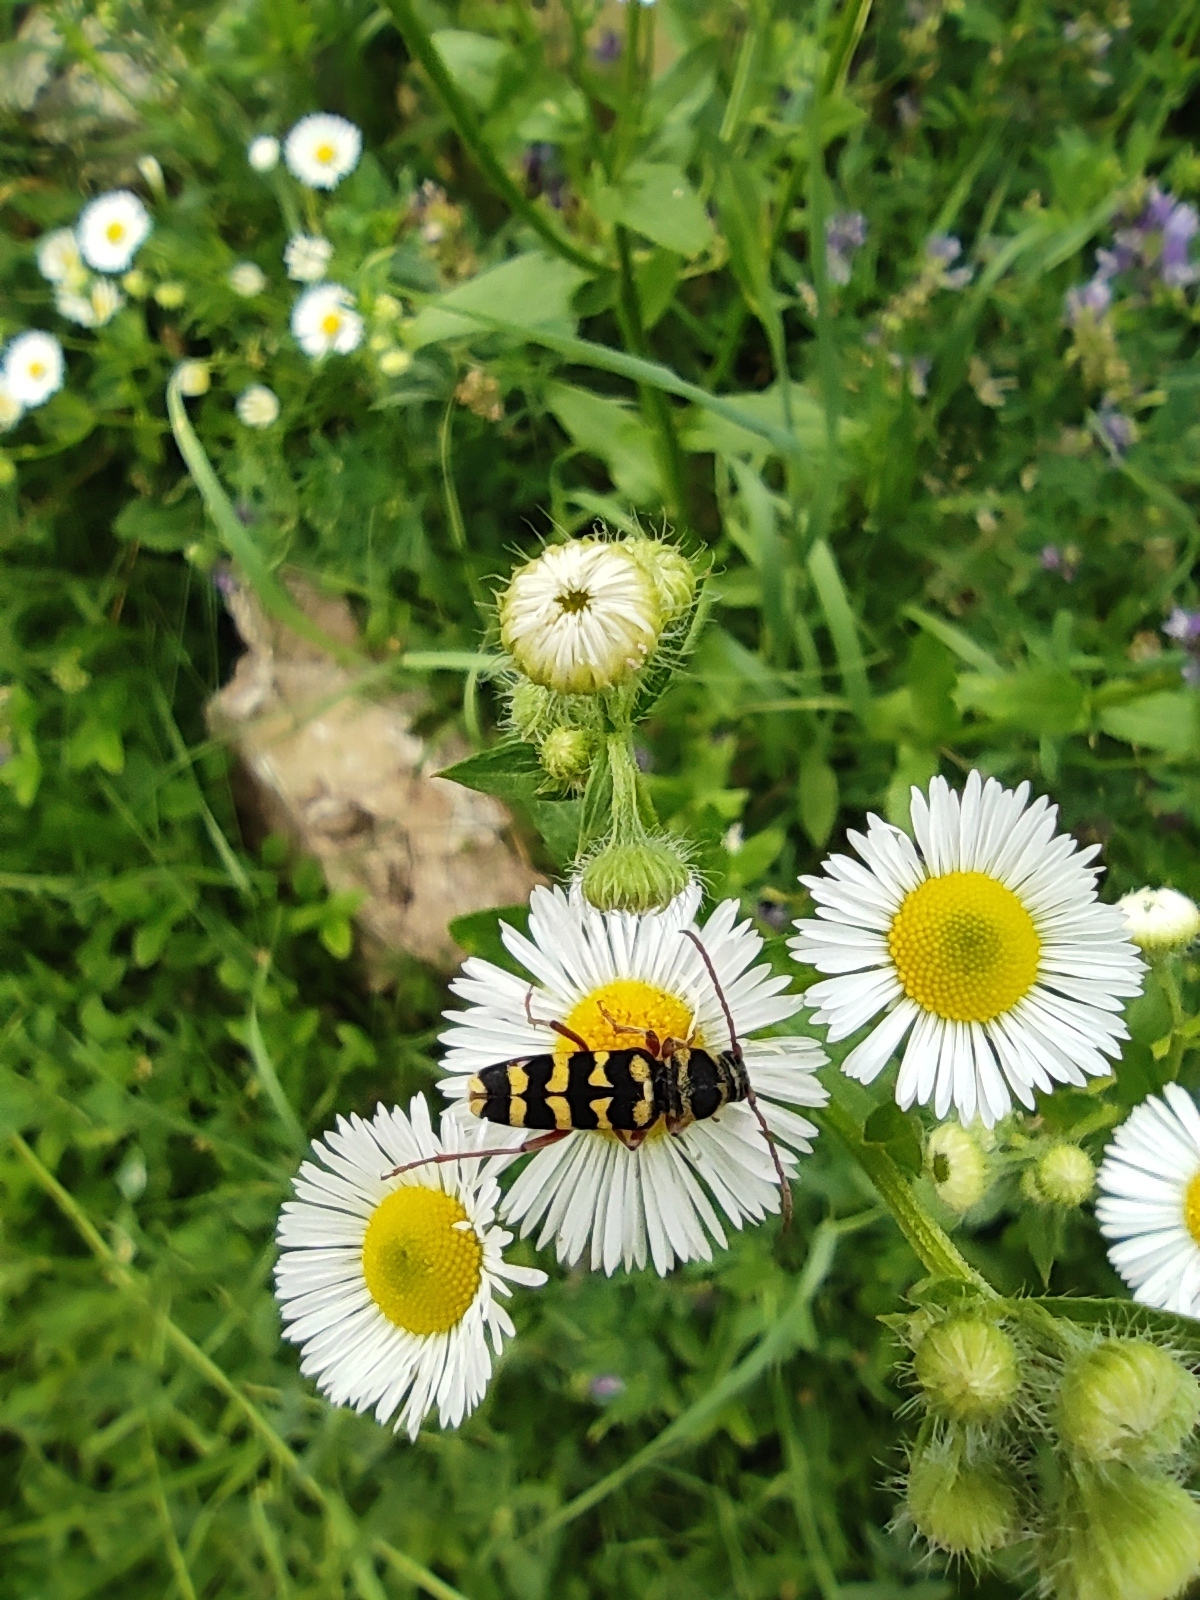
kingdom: Animalia
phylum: Arthropoda
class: Insecta
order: Coleoptera
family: Cerambycidae
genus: Plagionotus
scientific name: Plagionotus floralis
